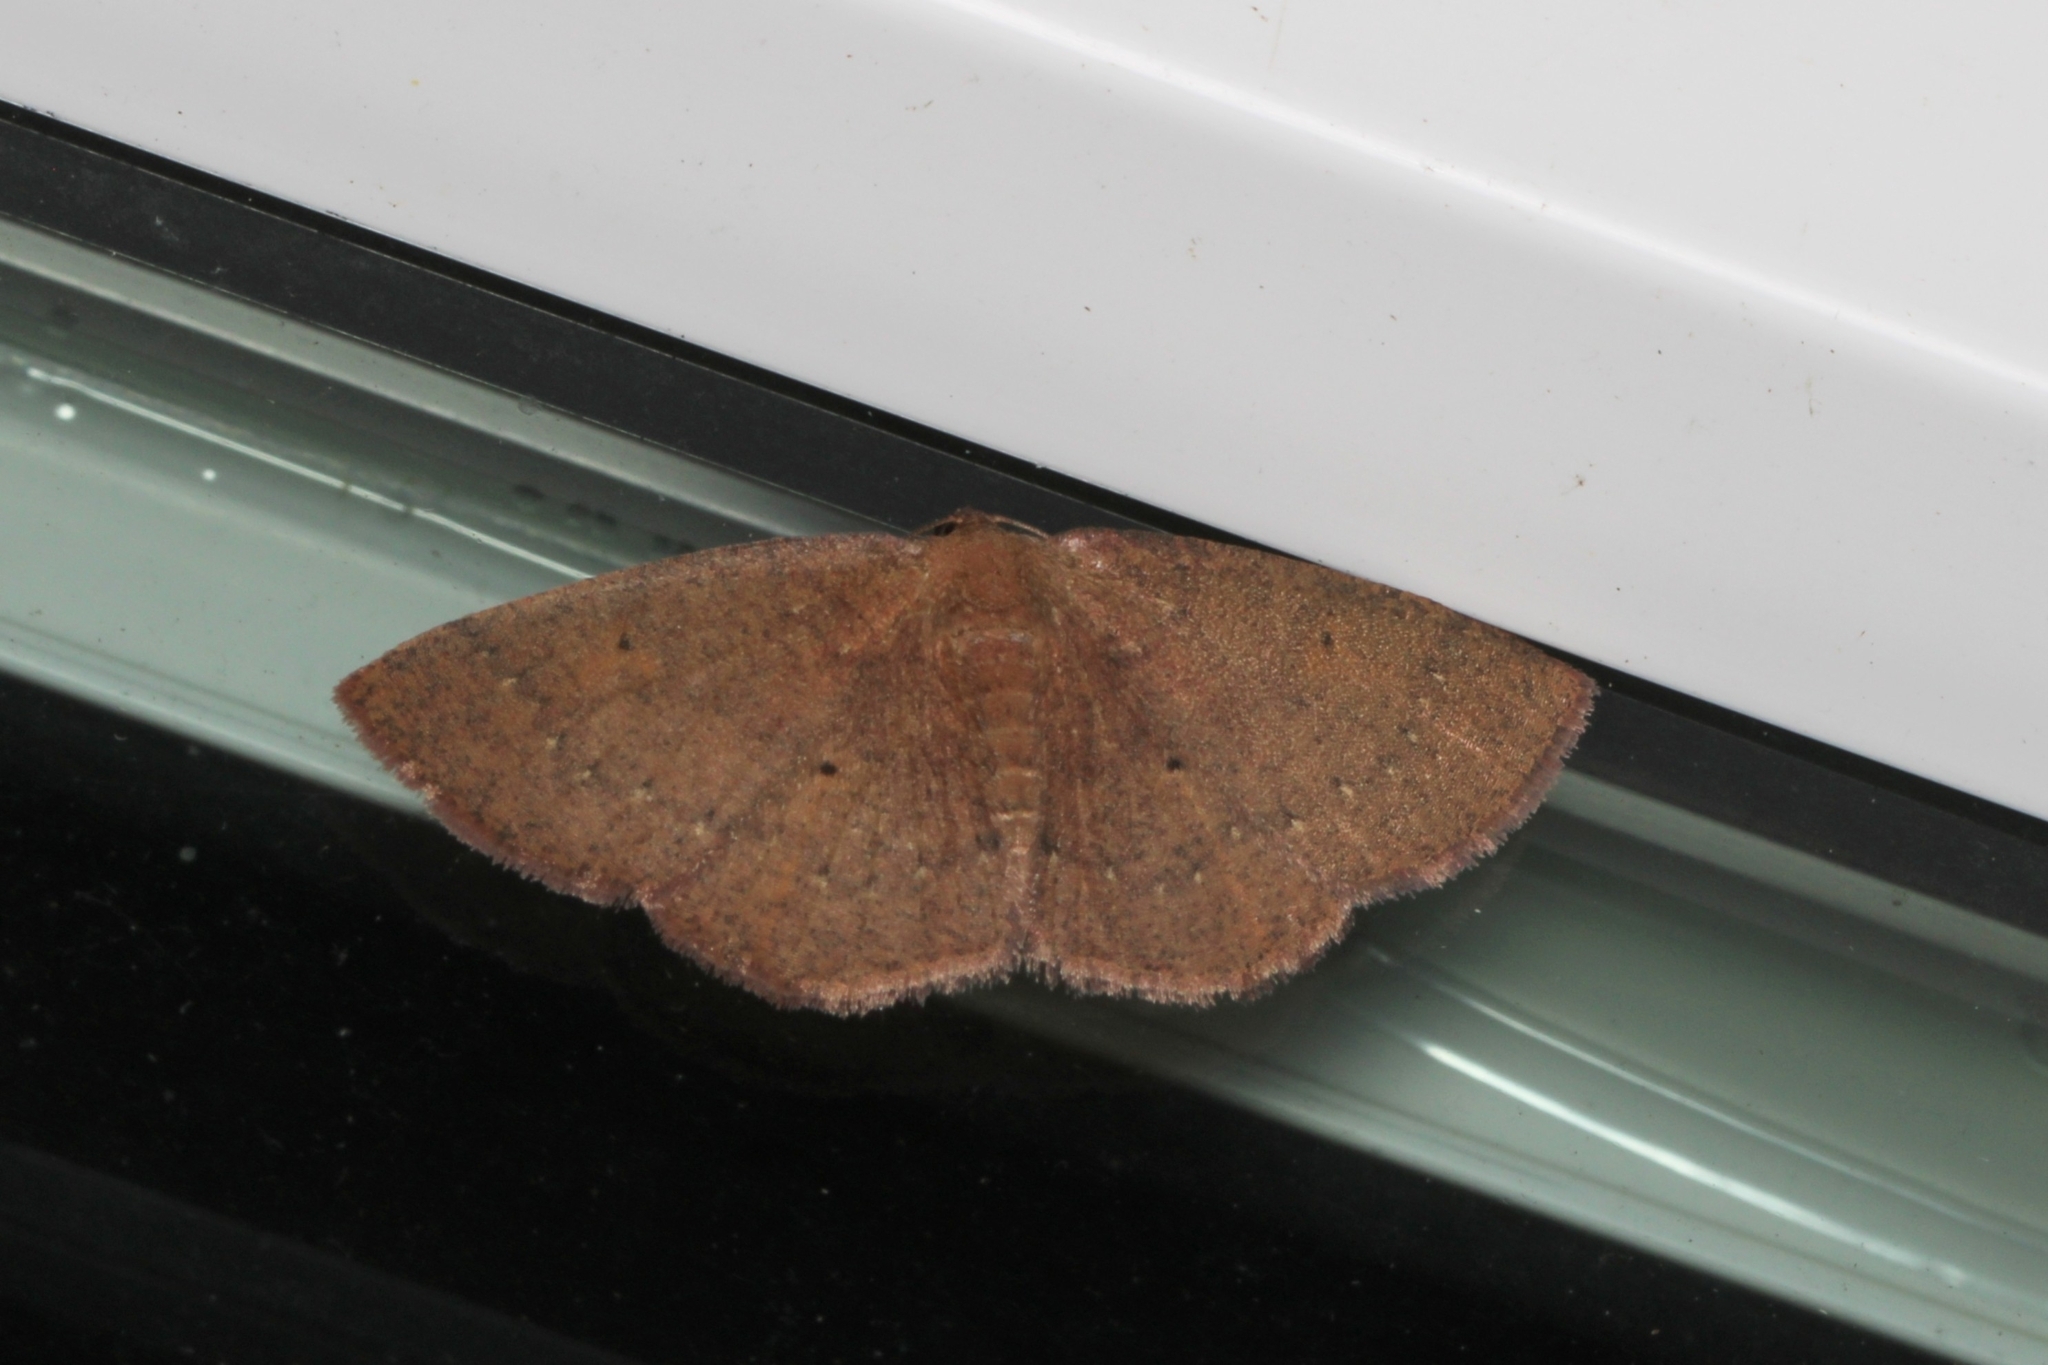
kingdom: Animalia
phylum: Arthropoda
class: Insecta
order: Lepidoptera
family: Geometridae
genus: Ilexia
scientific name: Ilexia intractata
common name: Black-dotted ruddy moth
